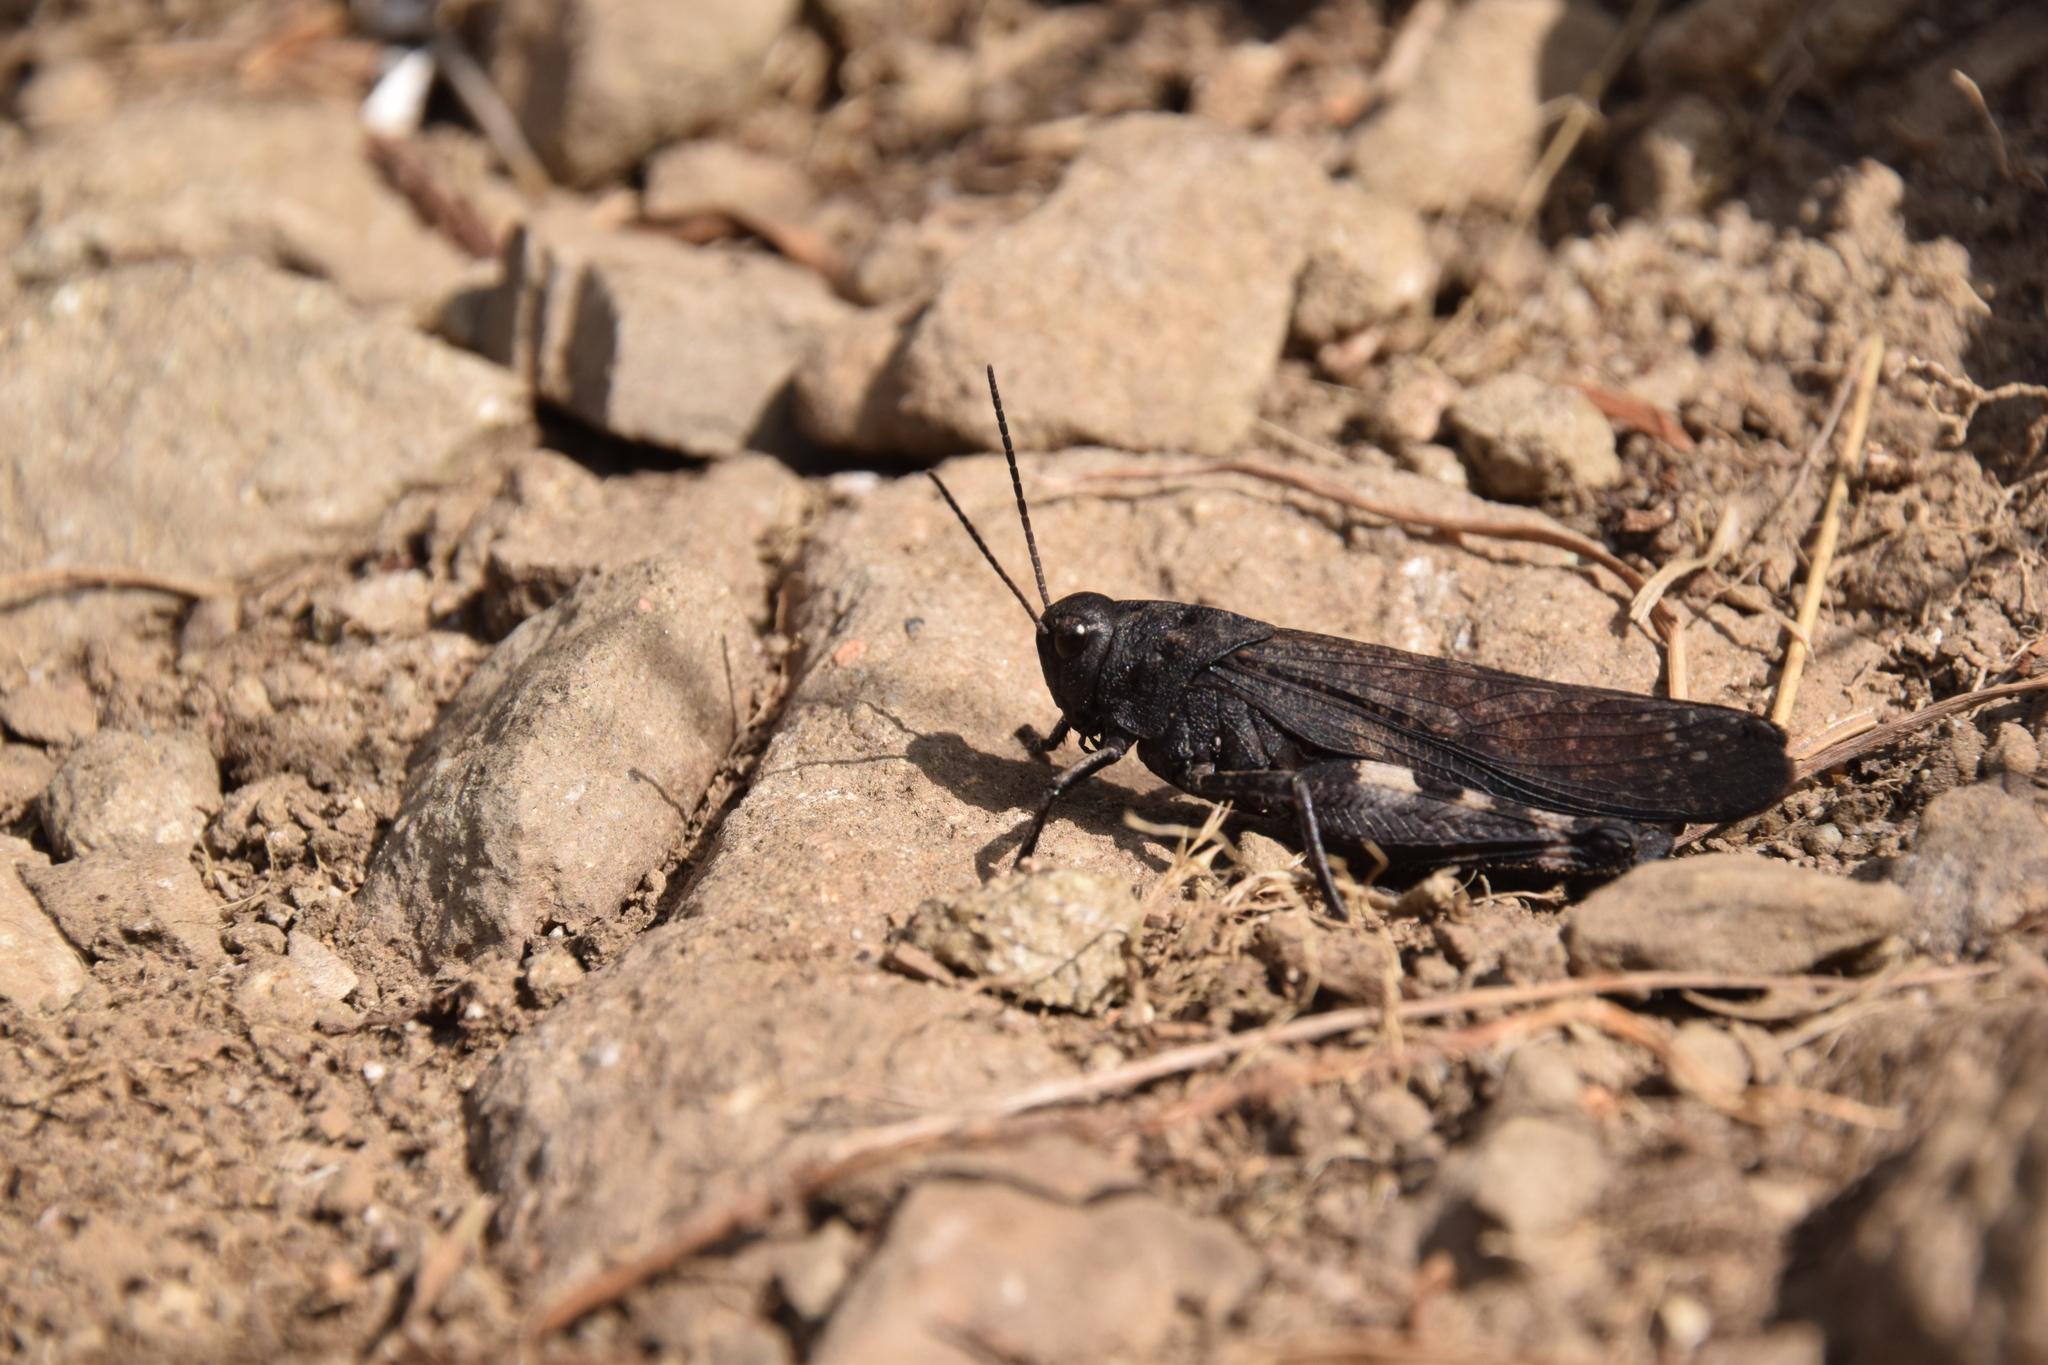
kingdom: Animalia
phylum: Arthropoda
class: Insecta
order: Orthoptera
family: Acrididae
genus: Psophus
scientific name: Psophus stridulus
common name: Rattle grasshopper
